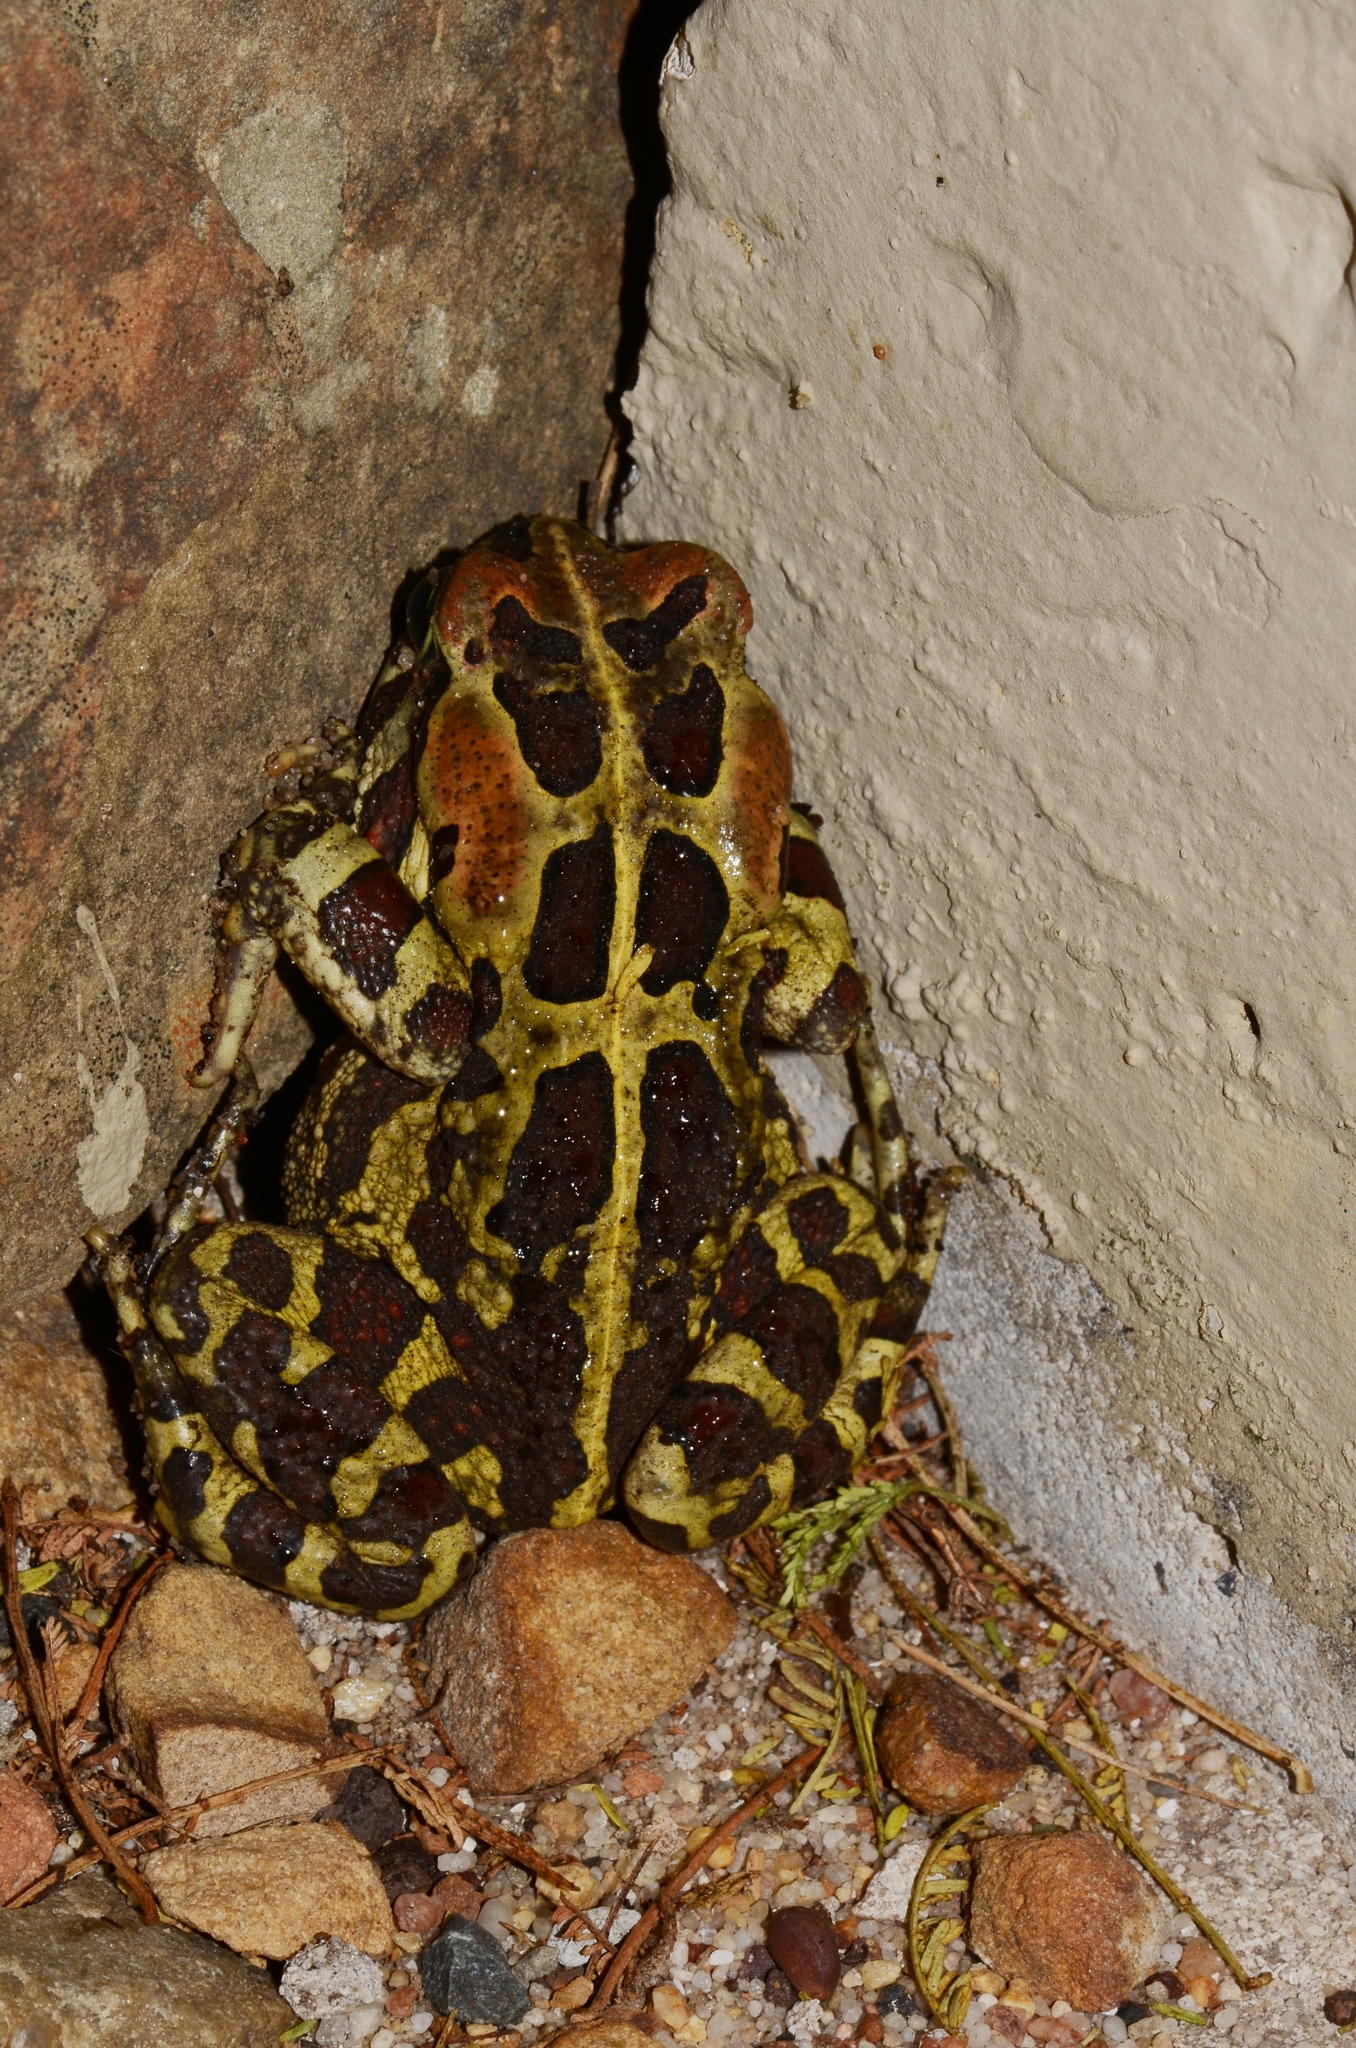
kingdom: Animalia
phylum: Chordata
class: Amphibia
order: Anura
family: Bufonidae
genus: Sclerophrys
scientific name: Sclerophrys pantherina
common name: Panther toad
